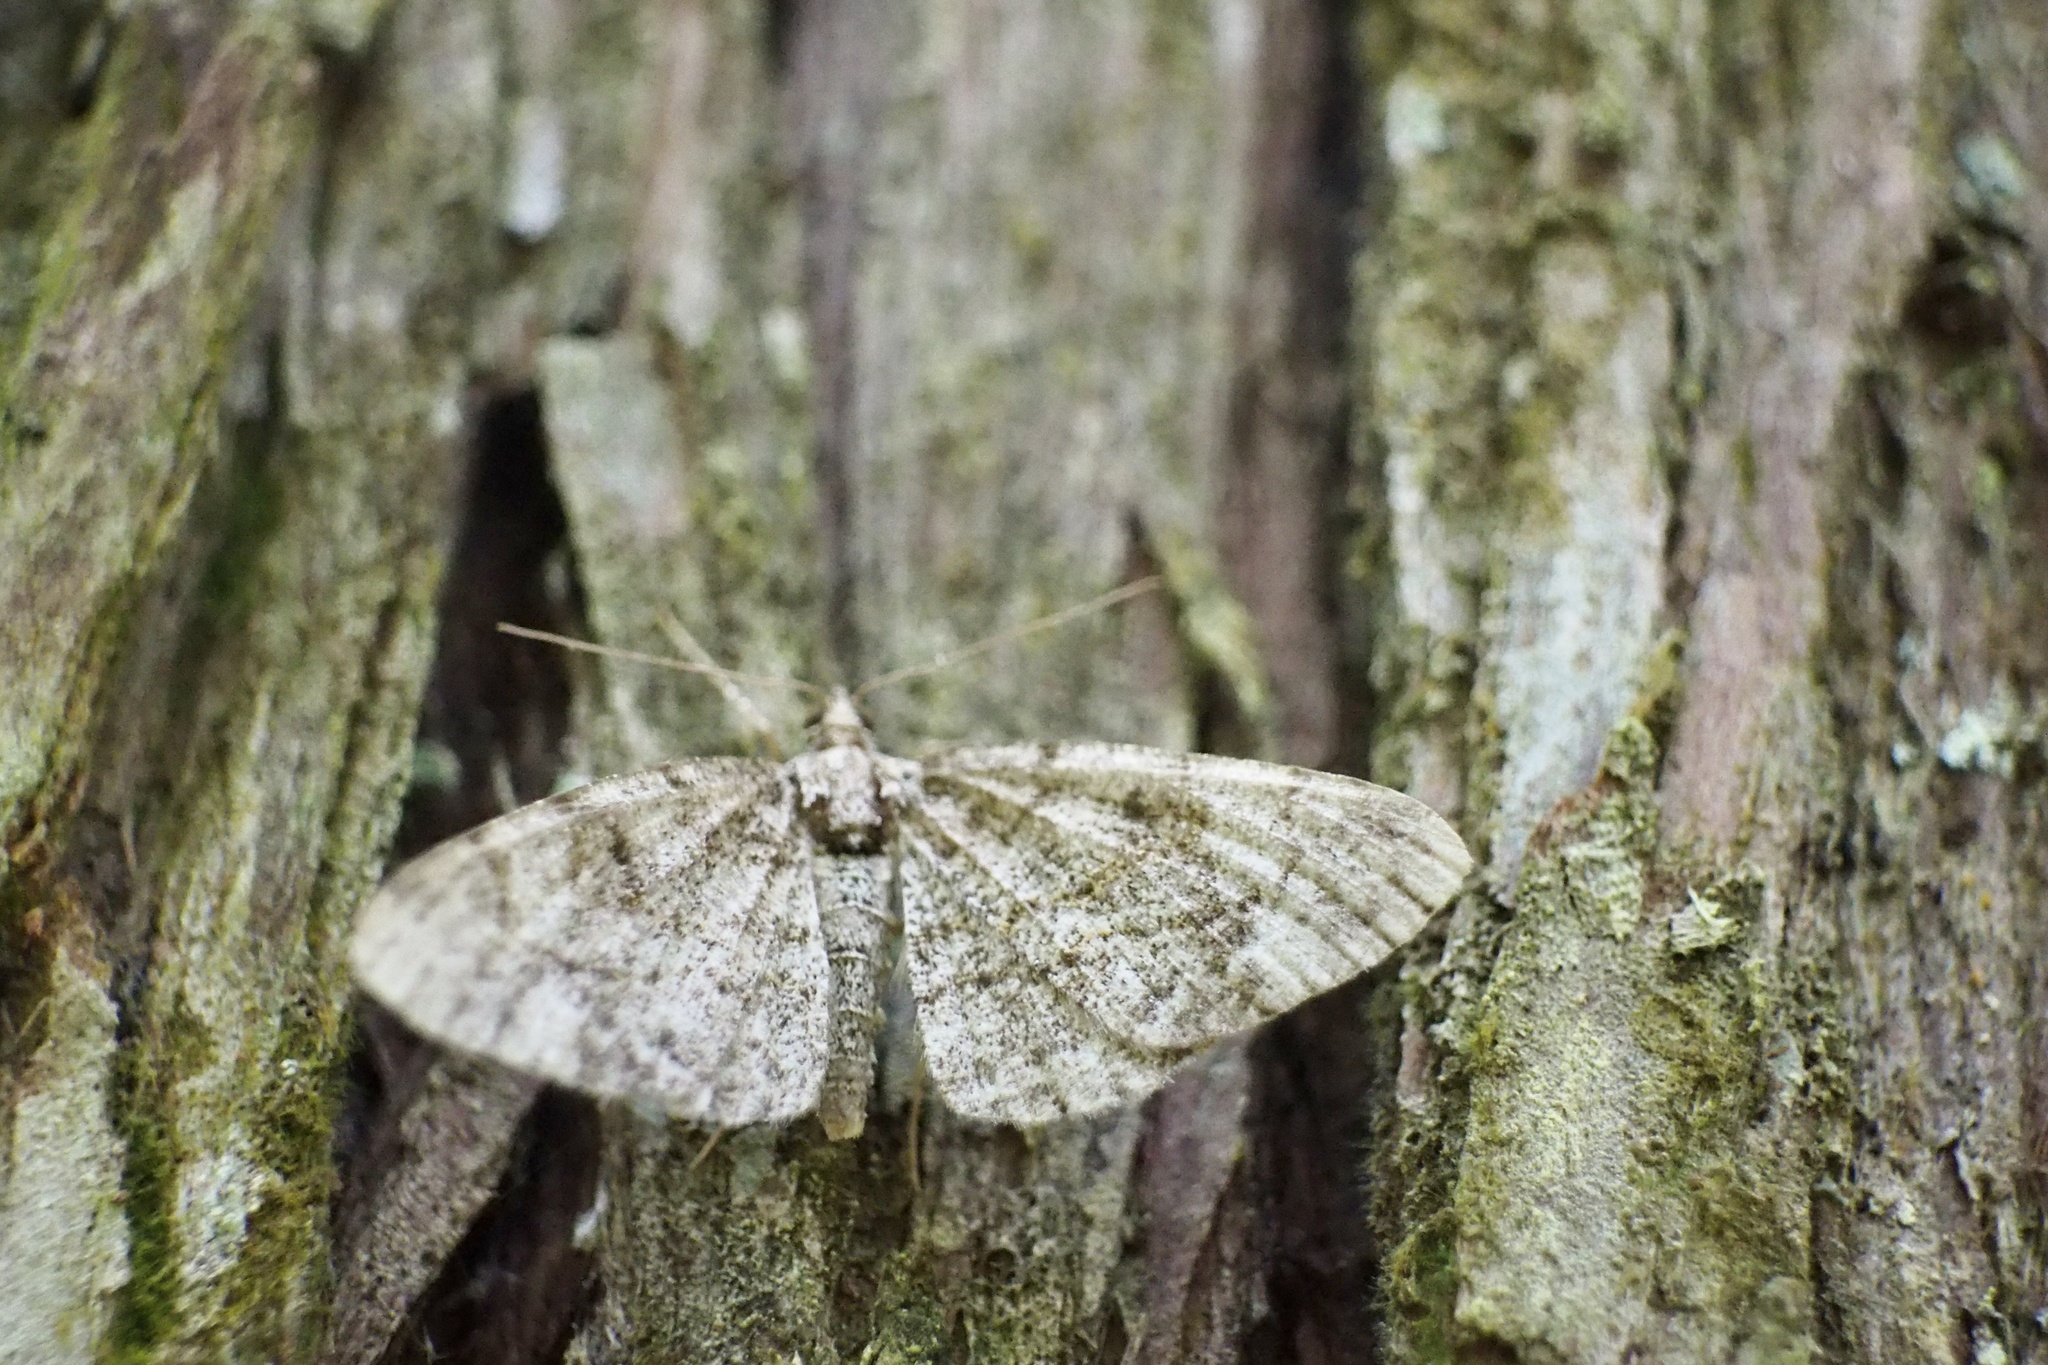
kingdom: Animalia
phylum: Arthropoda
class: Insecta
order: Lepidoptera
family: Geometridae
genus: Protoboarmia
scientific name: Protoboarmia faustinata
